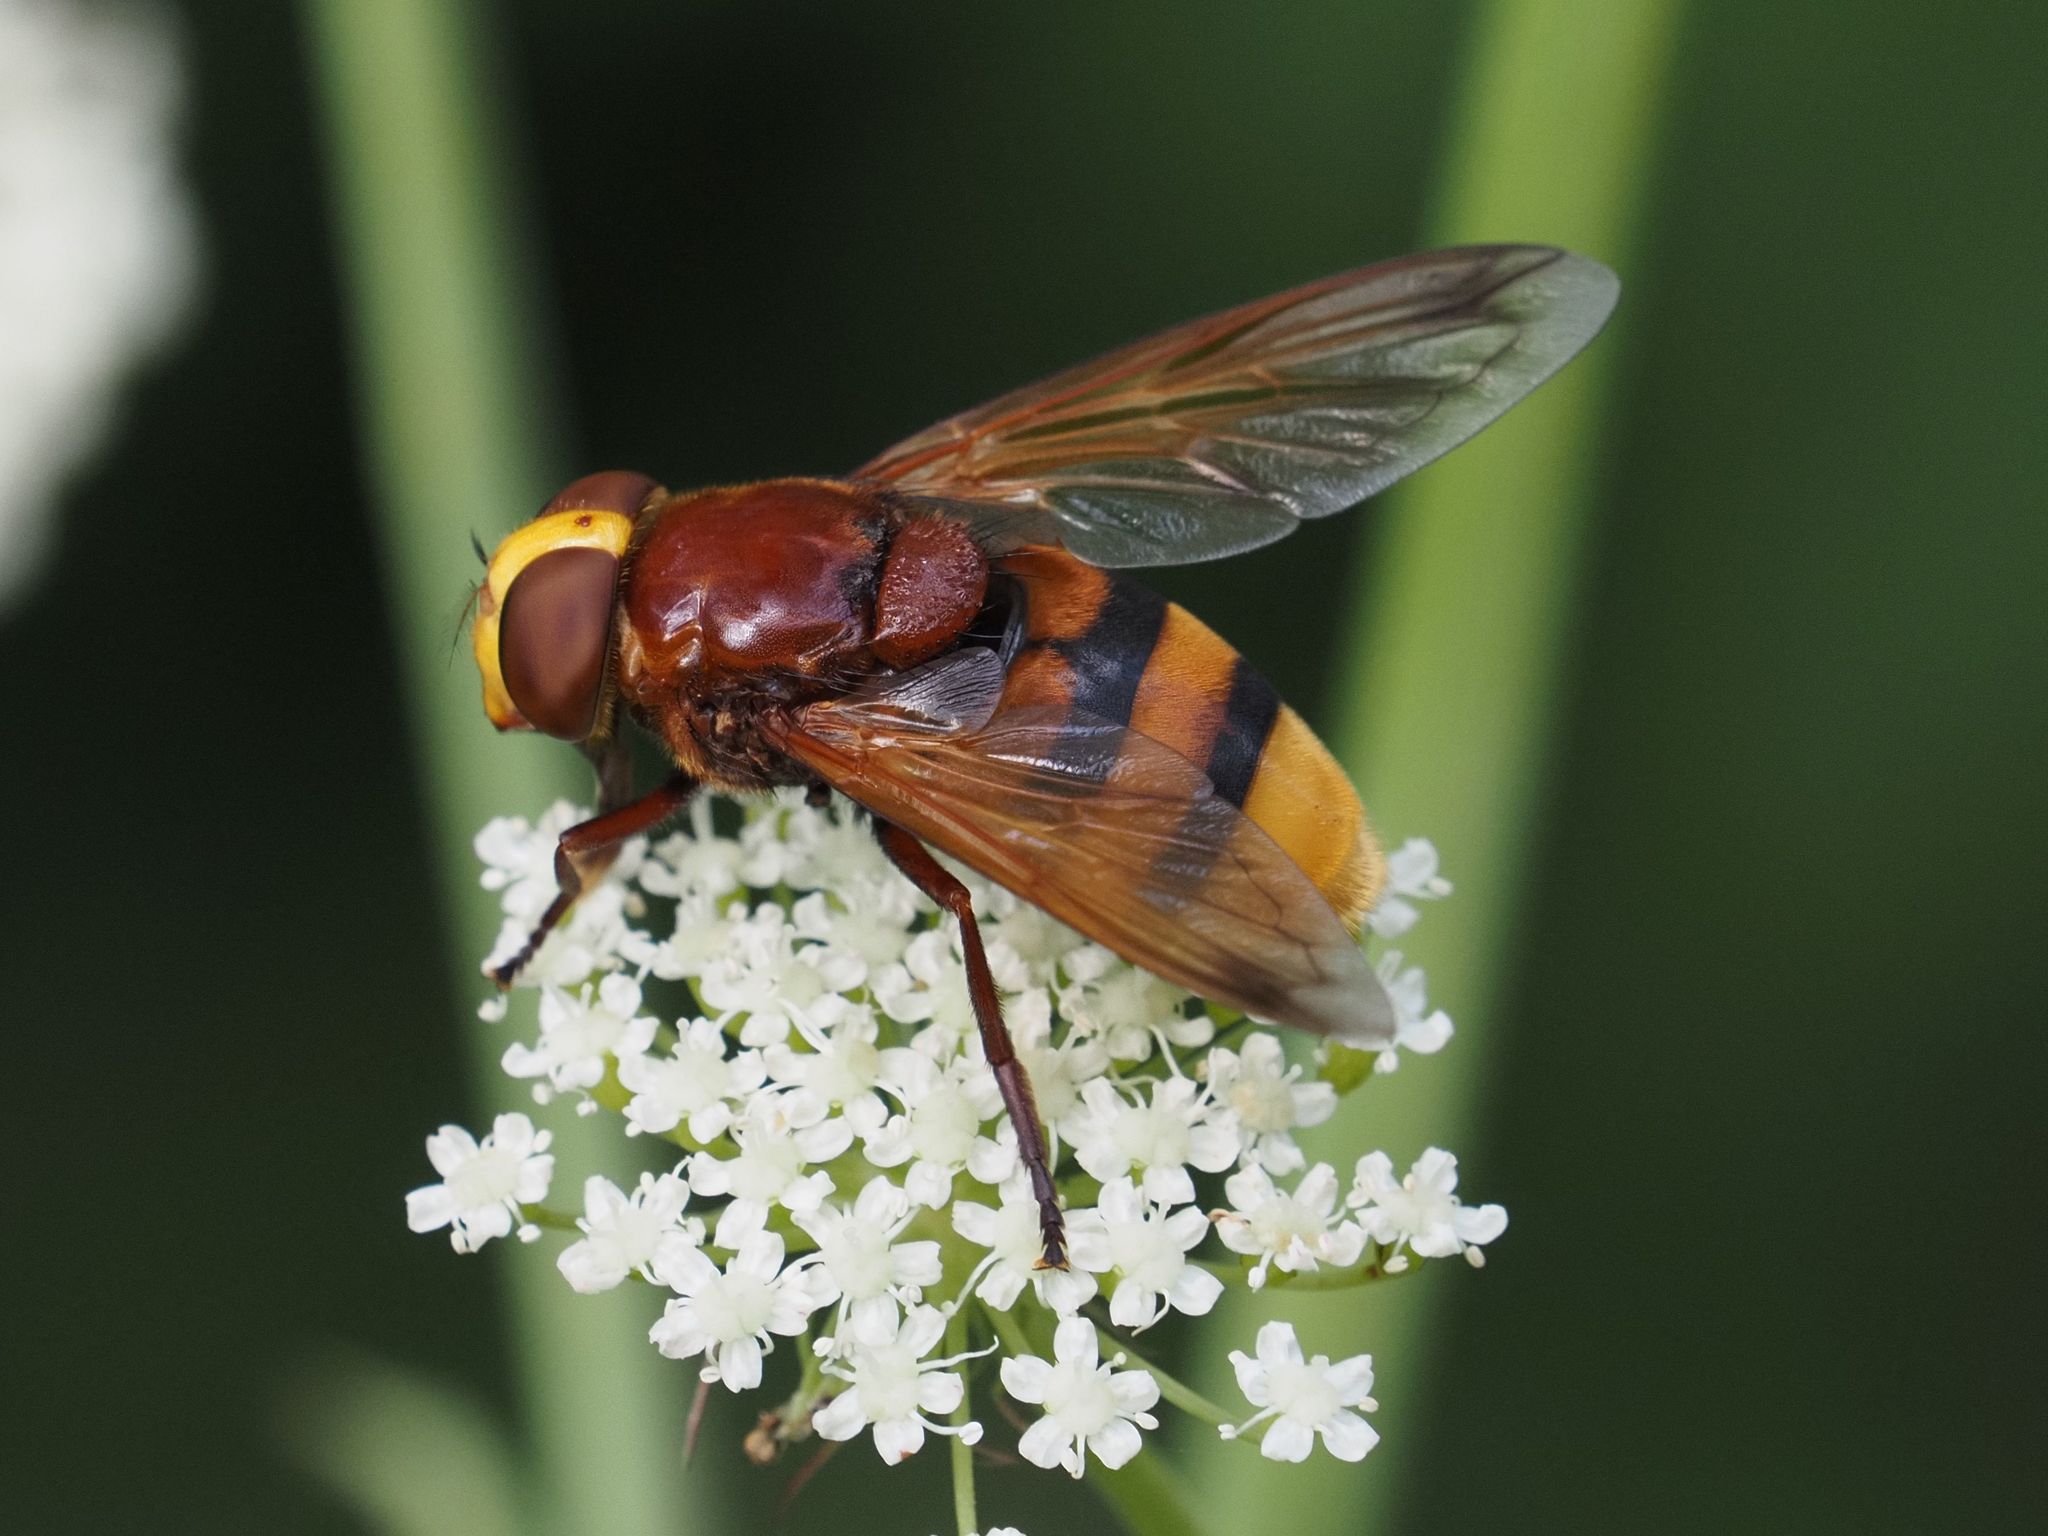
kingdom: Animalia
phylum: Arthropoda
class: Insecta
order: Diptera
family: Syrphidae
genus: Volucella
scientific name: Volucella zonaria
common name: Hornet hoverfly
